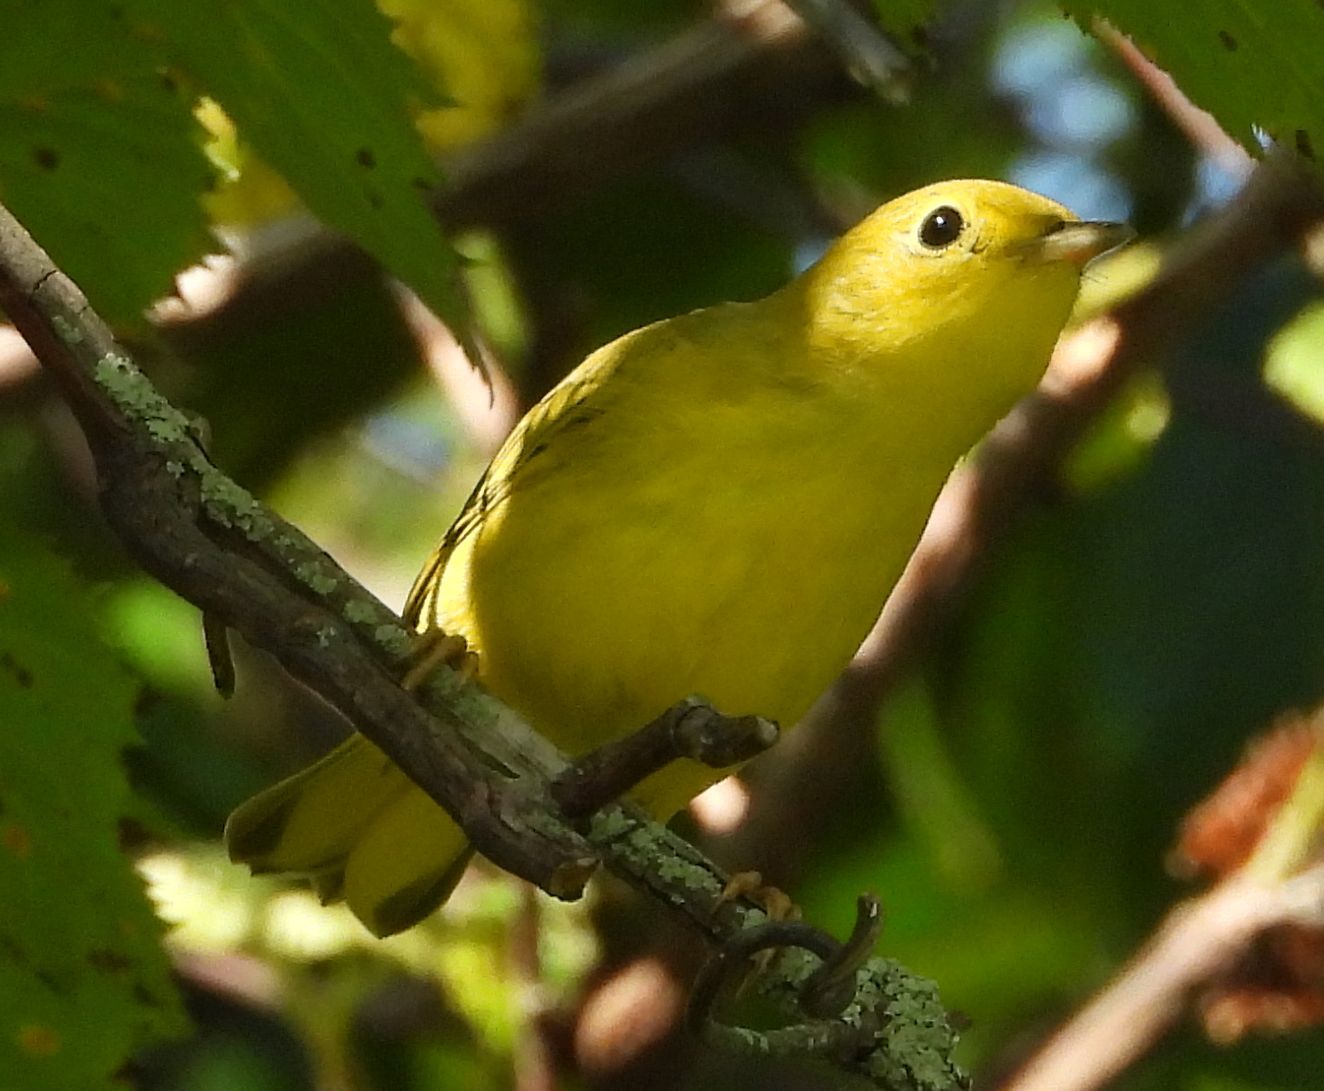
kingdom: Animalia
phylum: Chordata
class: Aves
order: Passeriformes
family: Parulidae
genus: Setophaga
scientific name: Setophaga petechia
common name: Yellow warbler
